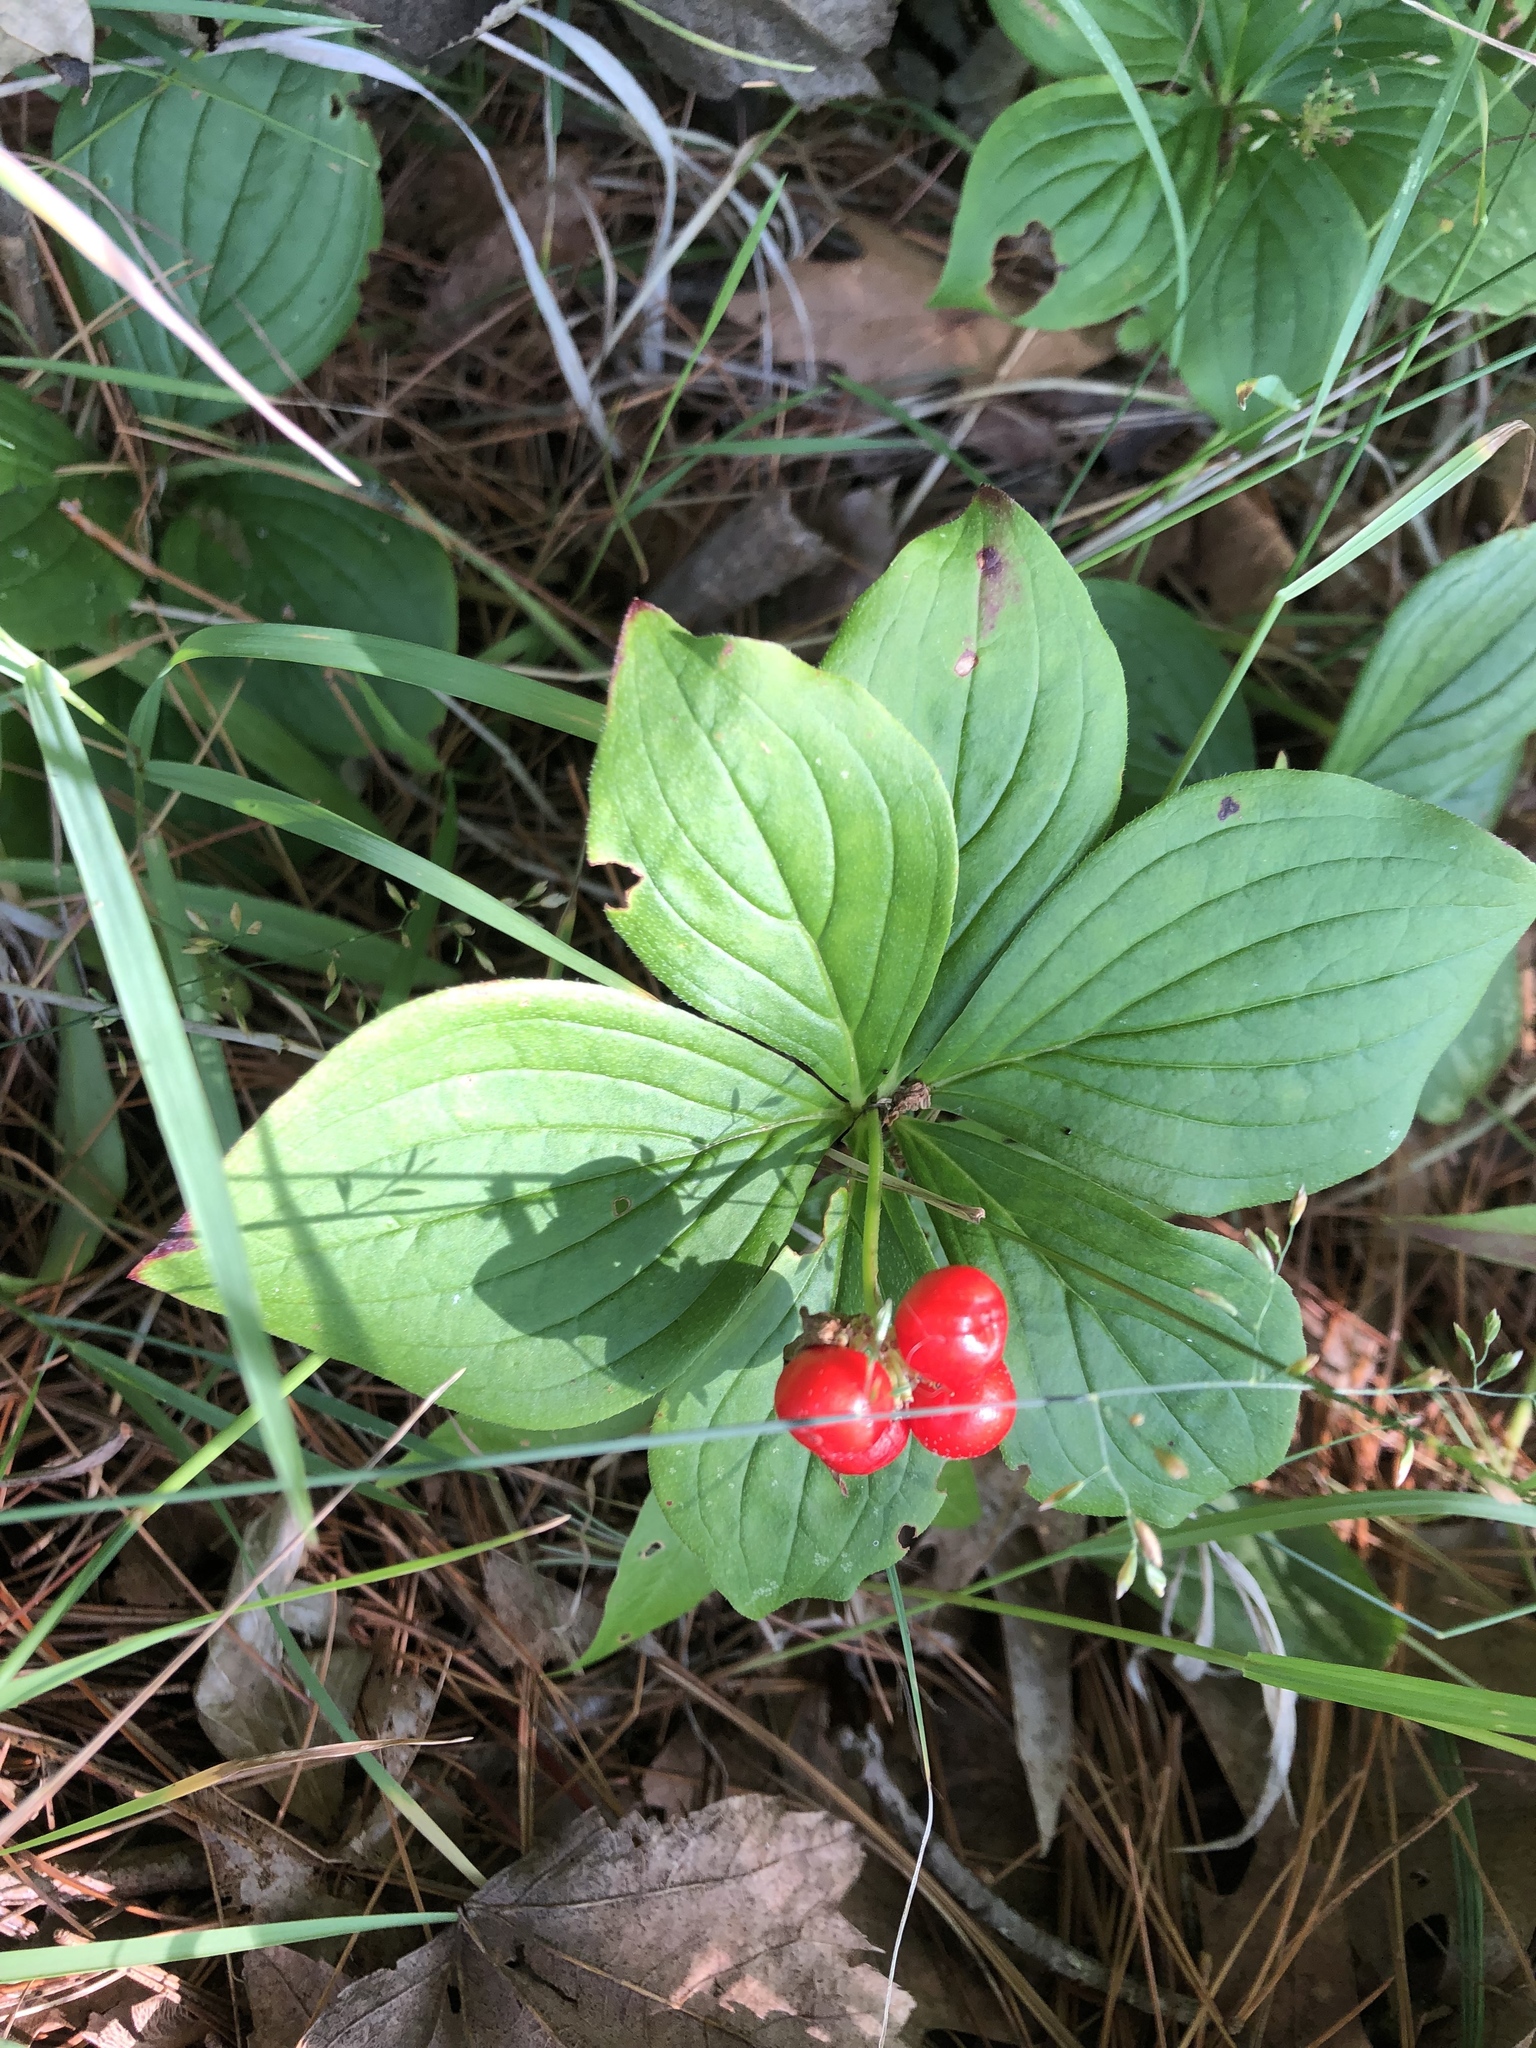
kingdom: Plantae
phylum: Tracheophyta
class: Magnoliopsida
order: Cornales
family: Cornaceae
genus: Cornus
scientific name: Cornus canadensis
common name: Creeping dogwood
